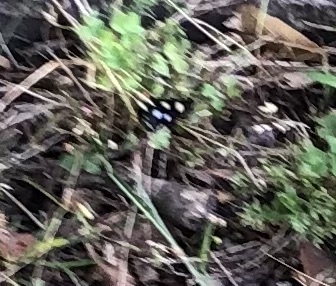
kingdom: Animalia
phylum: Arthropoda
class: Insecta
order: Lepidoptera
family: Noctuidae
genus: Alypia
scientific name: Alypia octomaculata
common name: Eight-spotted forester
